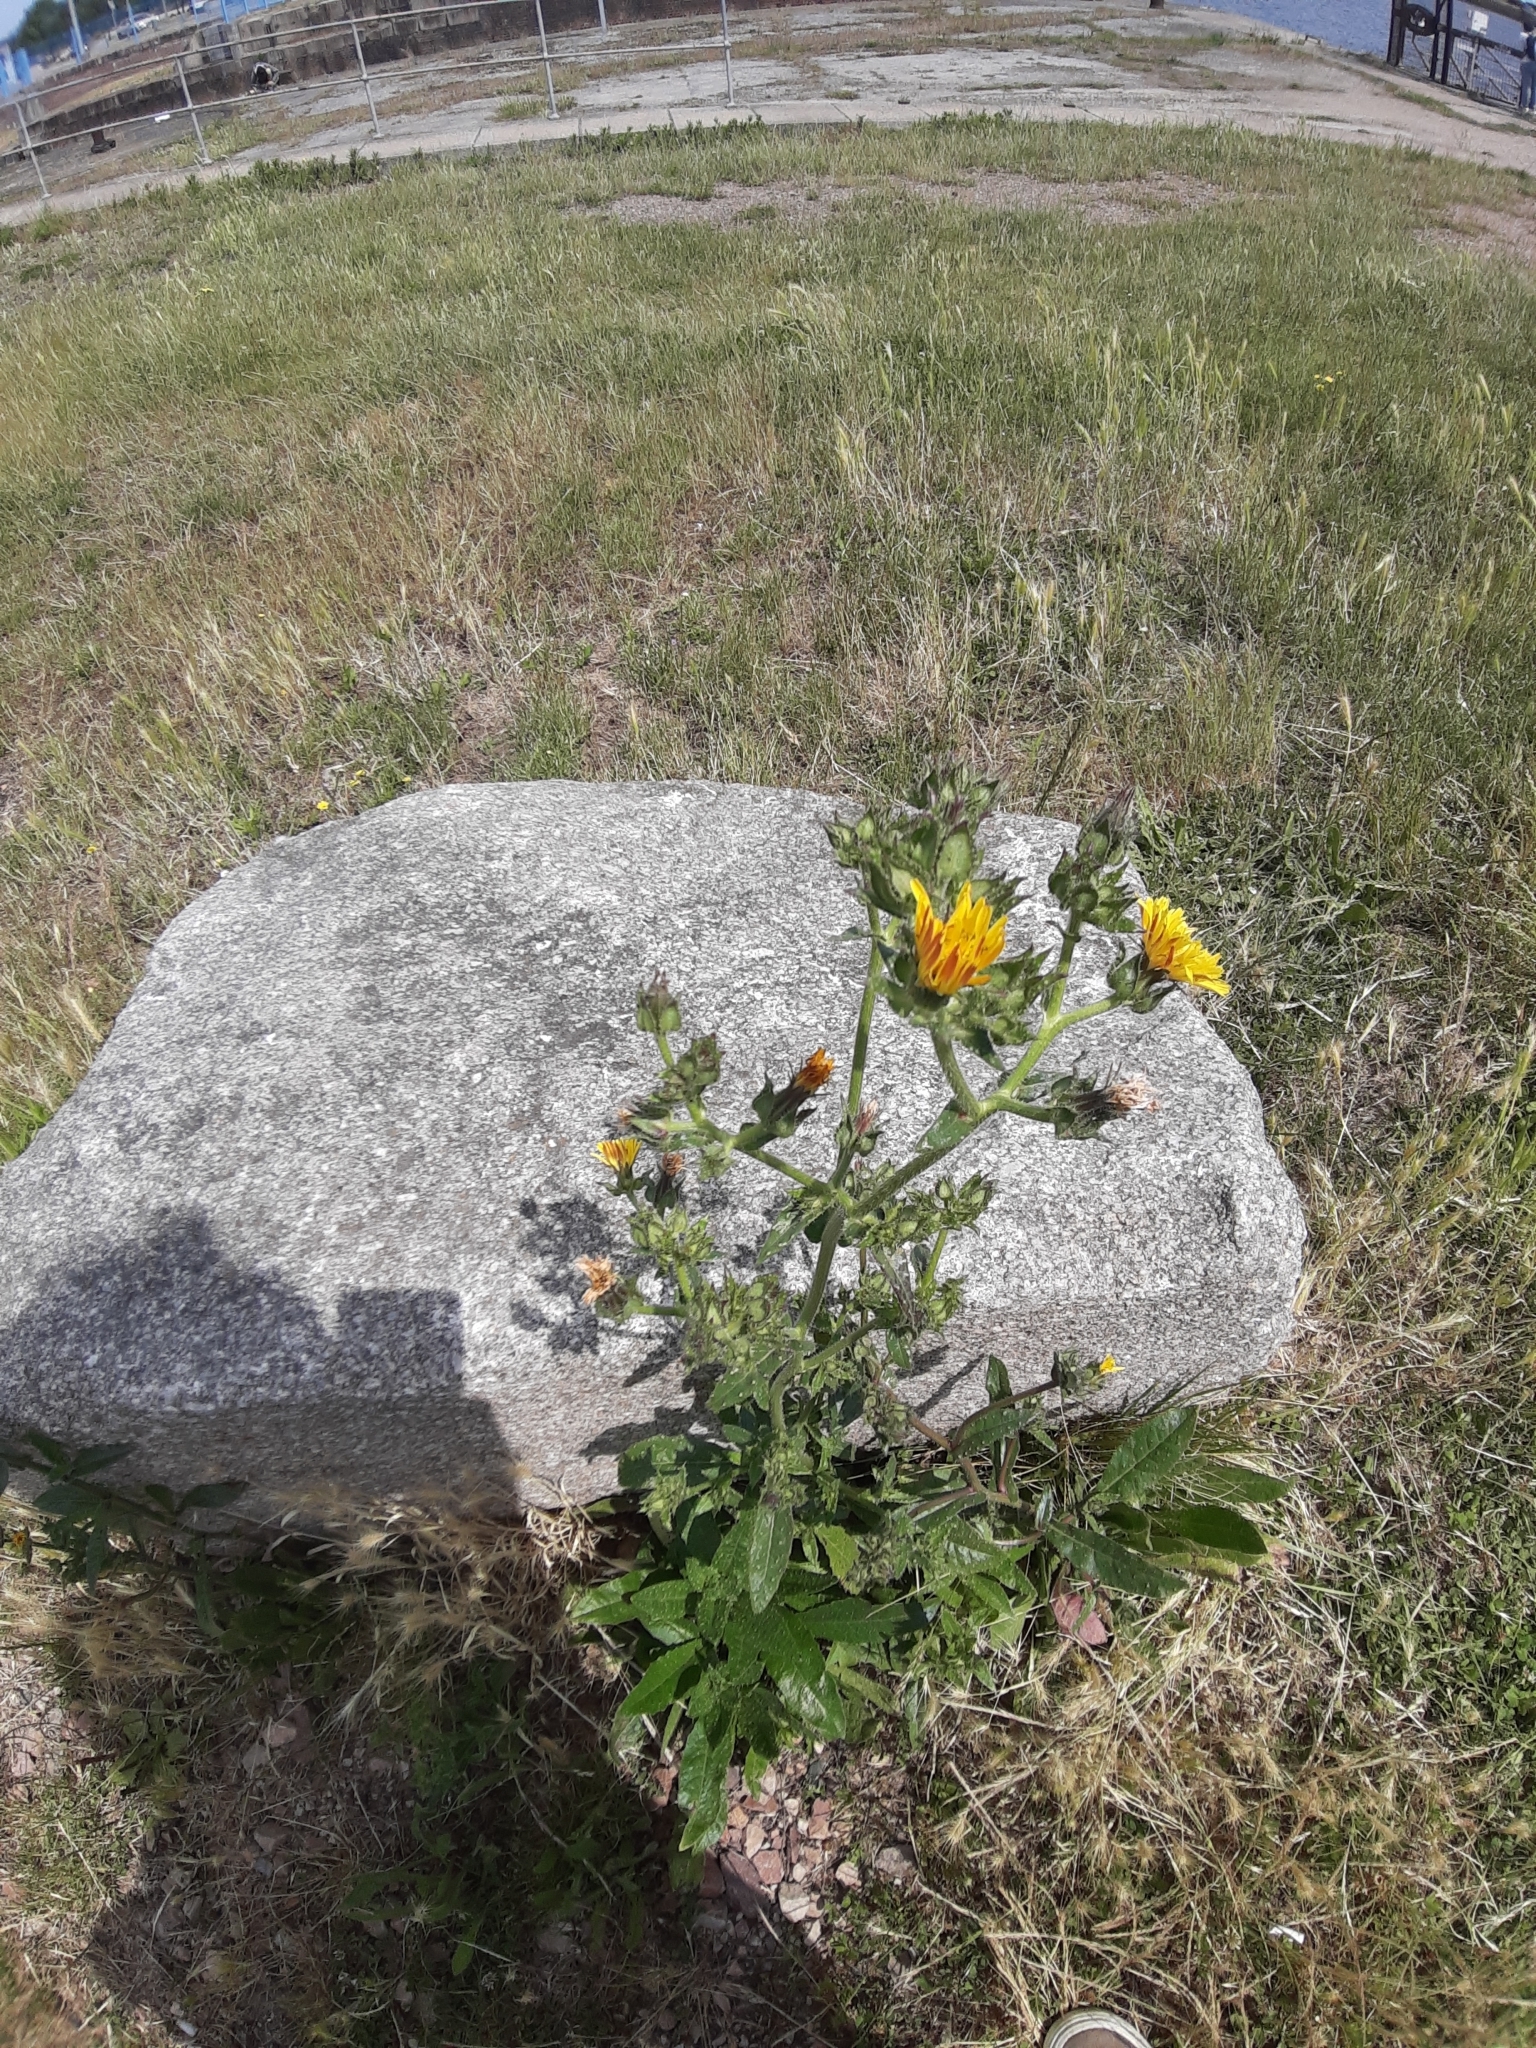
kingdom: Plantae
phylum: Tracheophyta
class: Magnoliopsida
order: Asterales
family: Asteraceae
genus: Helminthotheca
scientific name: Helminthotheca echioides
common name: Ox-tongue
